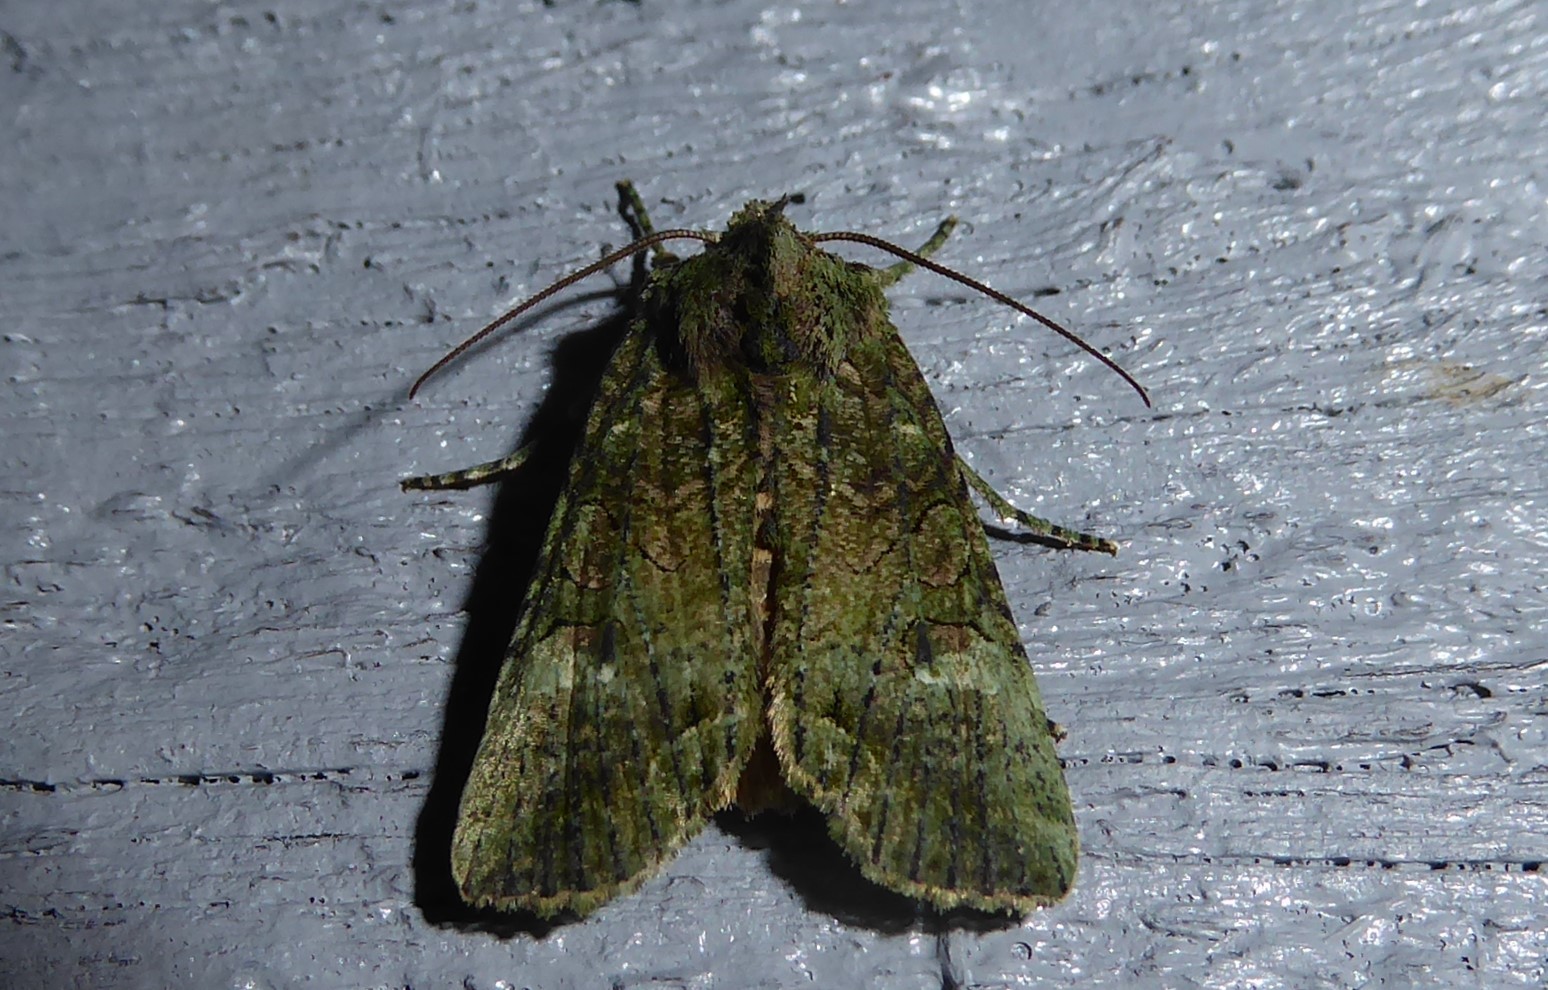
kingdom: Animalia
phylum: Arthropoda
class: Insecta
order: Lepidoptera
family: Noctuidae
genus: Meterana
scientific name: Meterana levis
